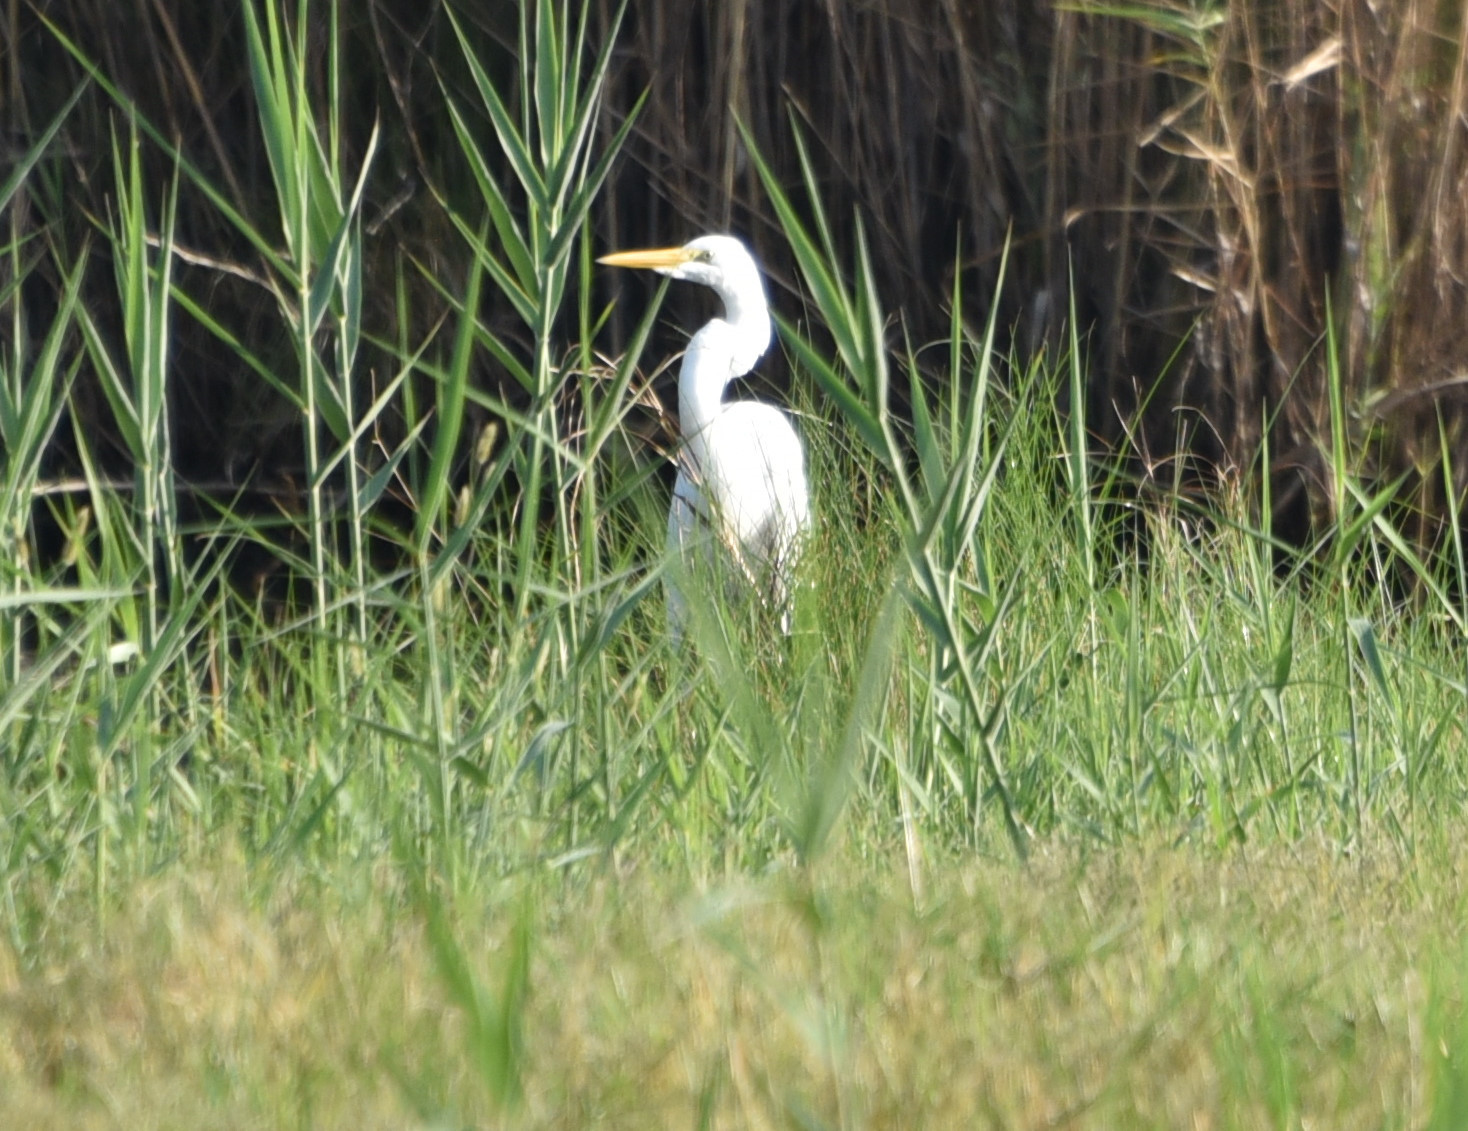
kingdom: Animalia
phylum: Chordata
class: Aves
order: Pelecaniformes
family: Ardeidae
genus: Ardea
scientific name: Ardea alba
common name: Great egret
